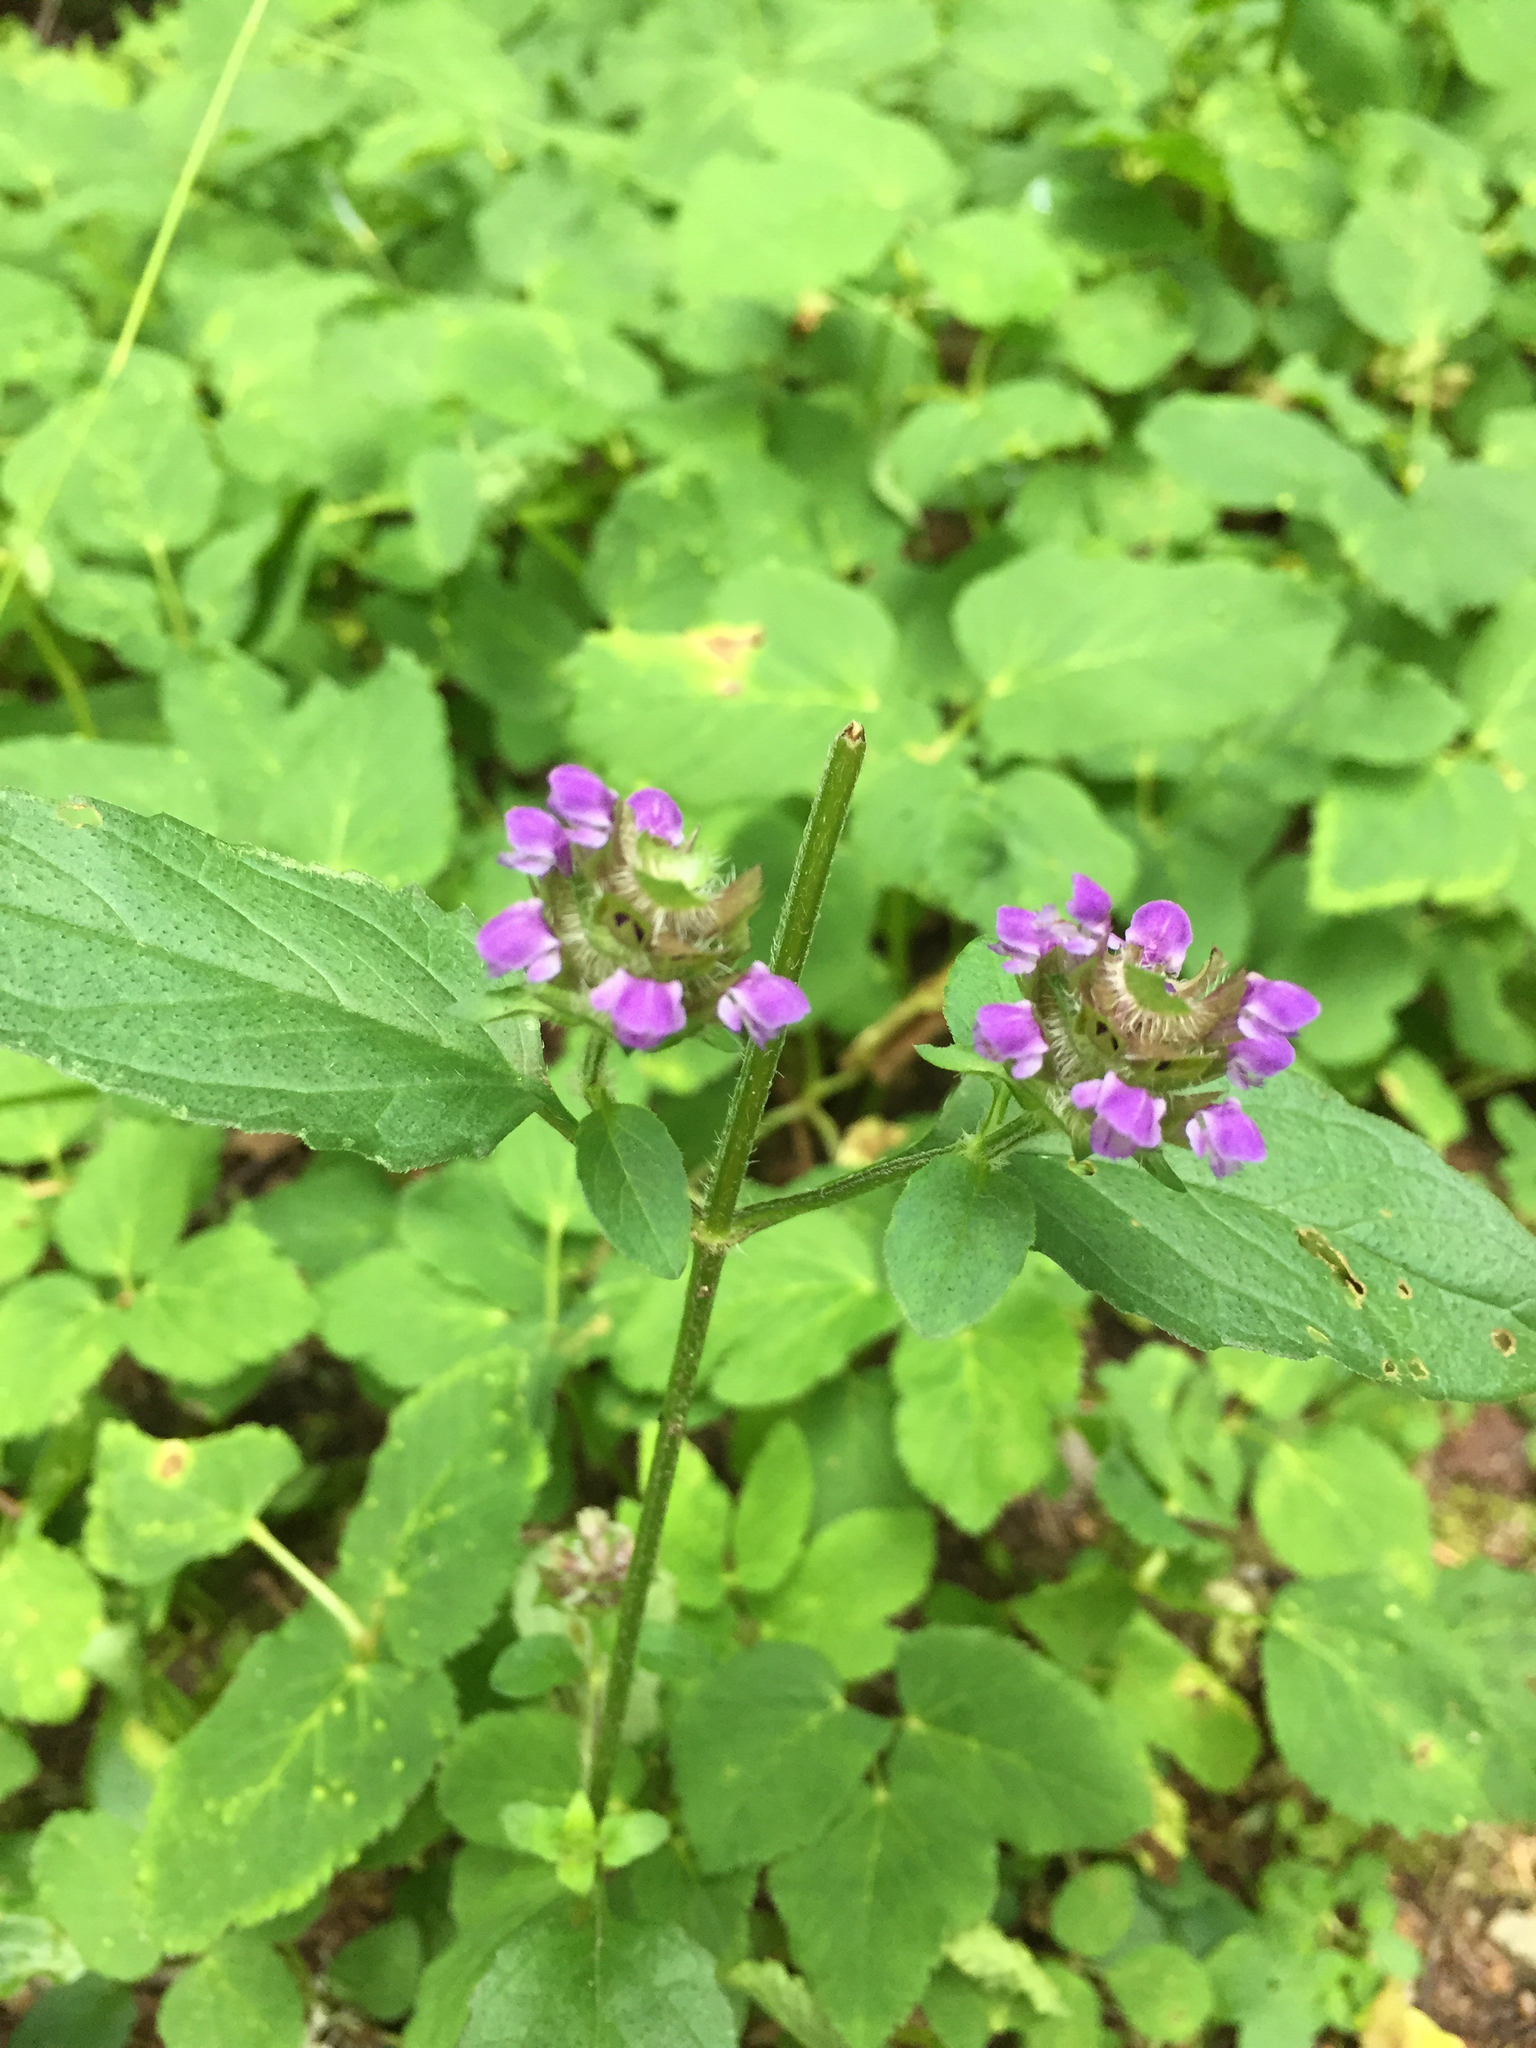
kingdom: Plantae
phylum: Tracheophyta
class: Magnoliopsida
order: Lamiales
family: Lamiaceae
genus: Prunella
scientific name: Prunella vulgaris
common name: Heal-all
